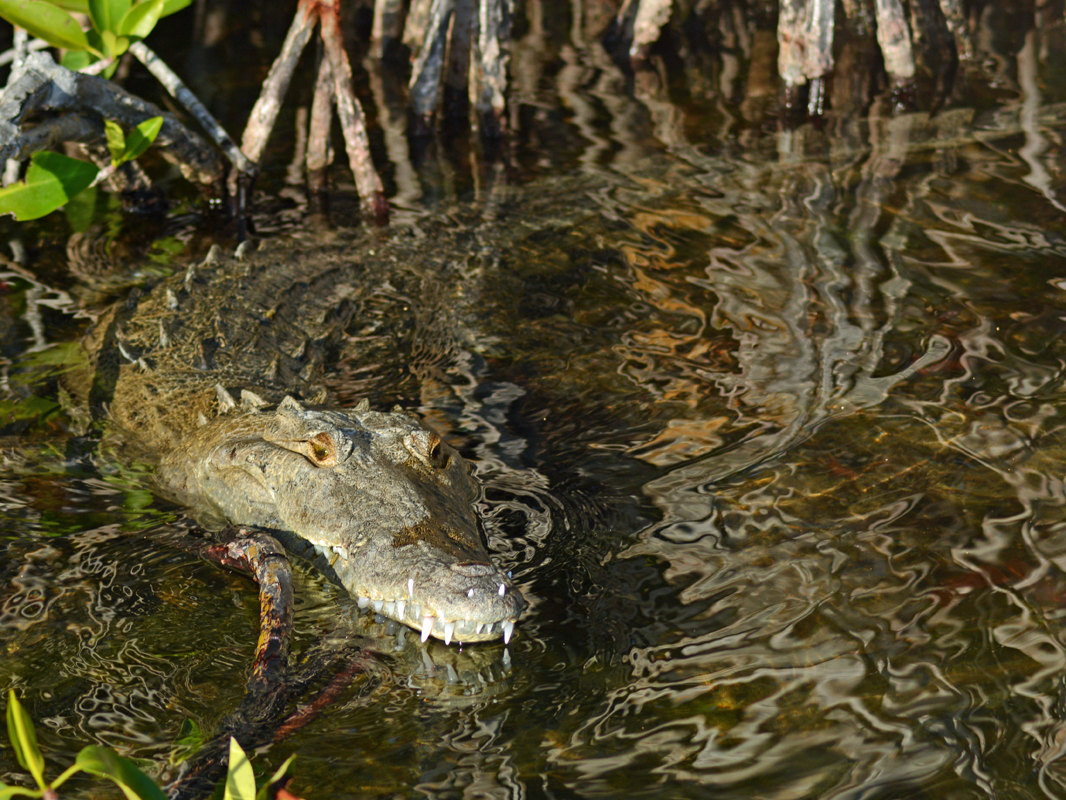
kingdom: Animalia
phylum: Chordata
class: Crocodylia
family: Crocodylidae
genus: Crocodylus
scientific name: Crocodylus acutus
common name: American crocodile
